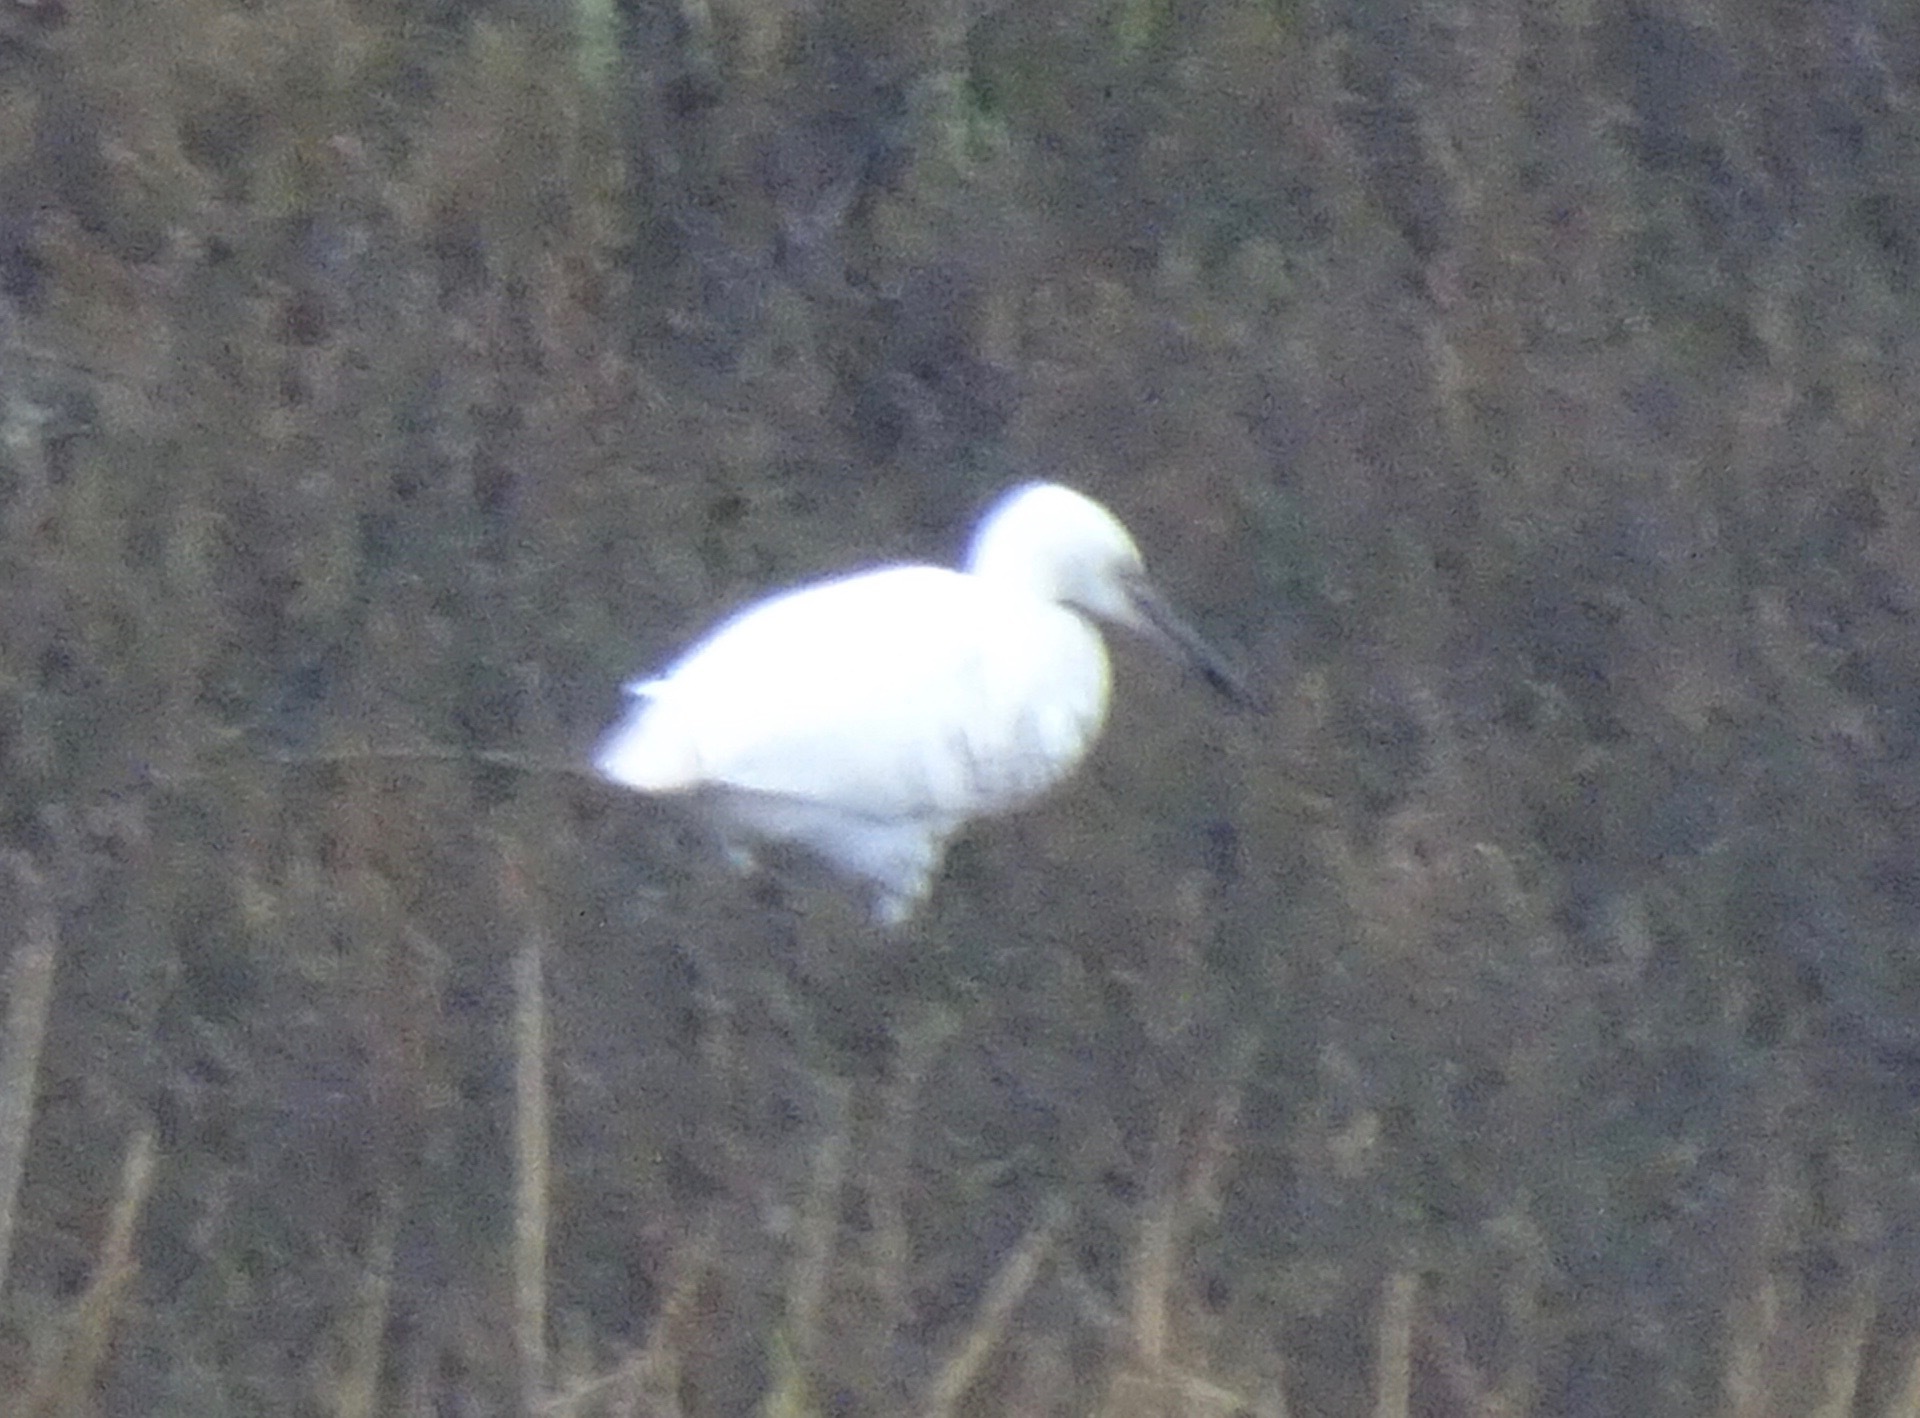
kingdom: Animalia
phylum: Chordata
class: Aves
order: Pelecaniformes
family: Ardeidae
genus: Egretta
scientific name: Egretta garzetta
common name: Little egret
